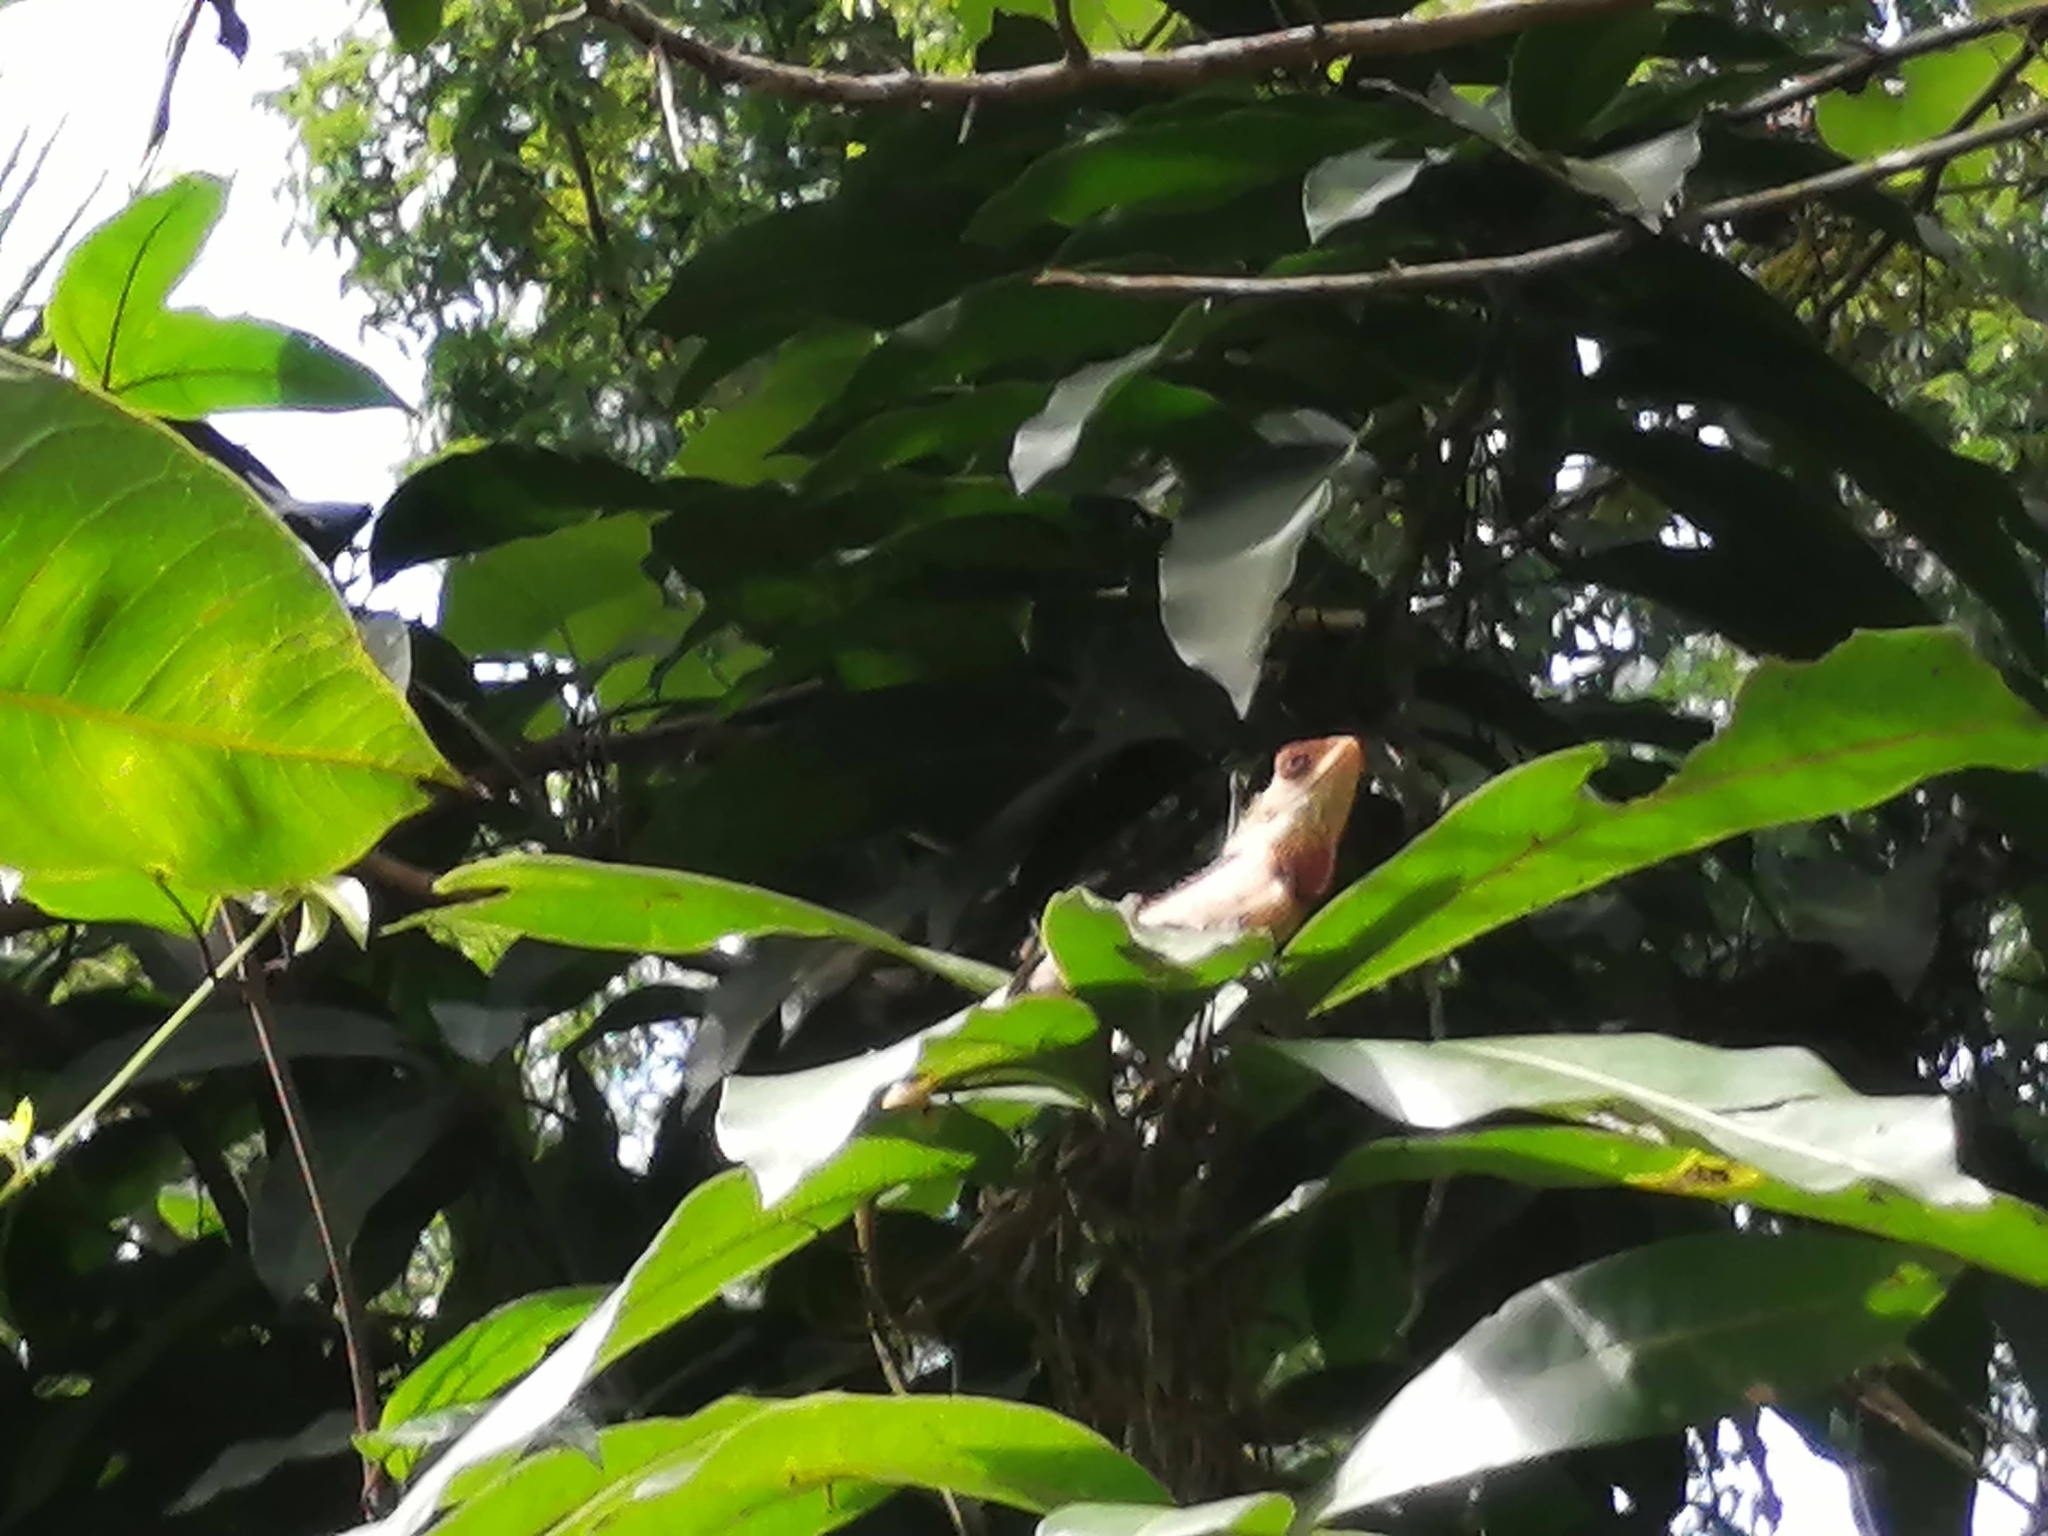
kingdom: Animalia
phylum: Chordata
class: Squamata
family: Agamidae
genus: Calotes
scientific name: Calotes versicolor
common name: Oriental garden lizard
